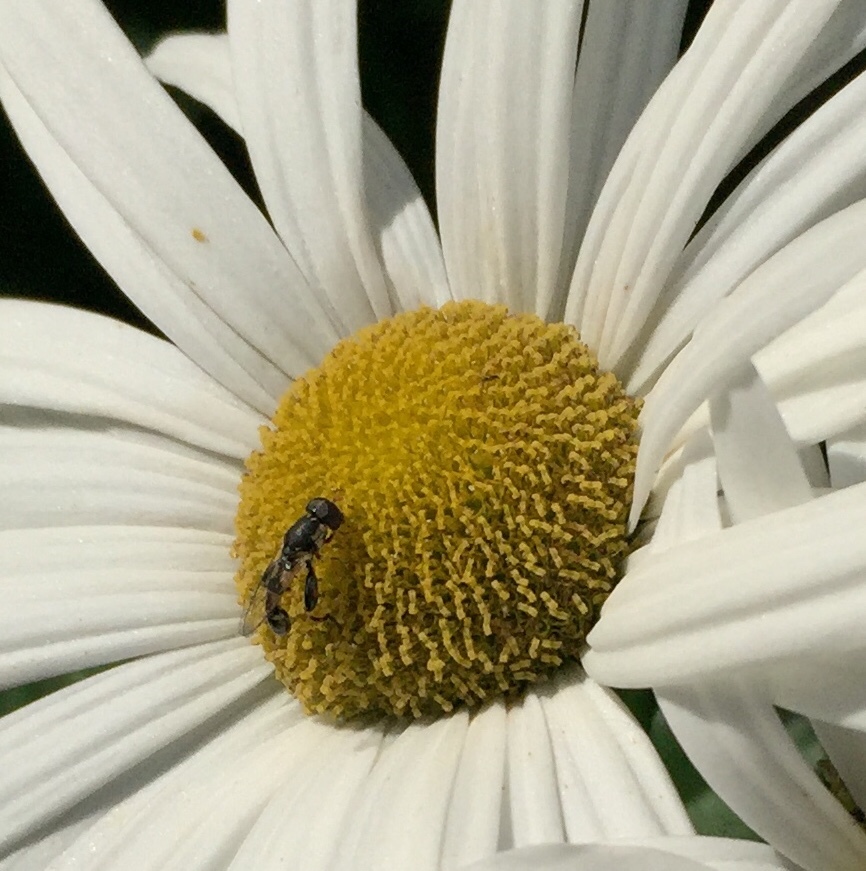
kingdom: Animalia
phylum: Arthropoda
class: Insecta
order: Diptera
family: Syrphidae
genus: Syritta
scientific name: Syritta pipiens
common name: Hover fly
